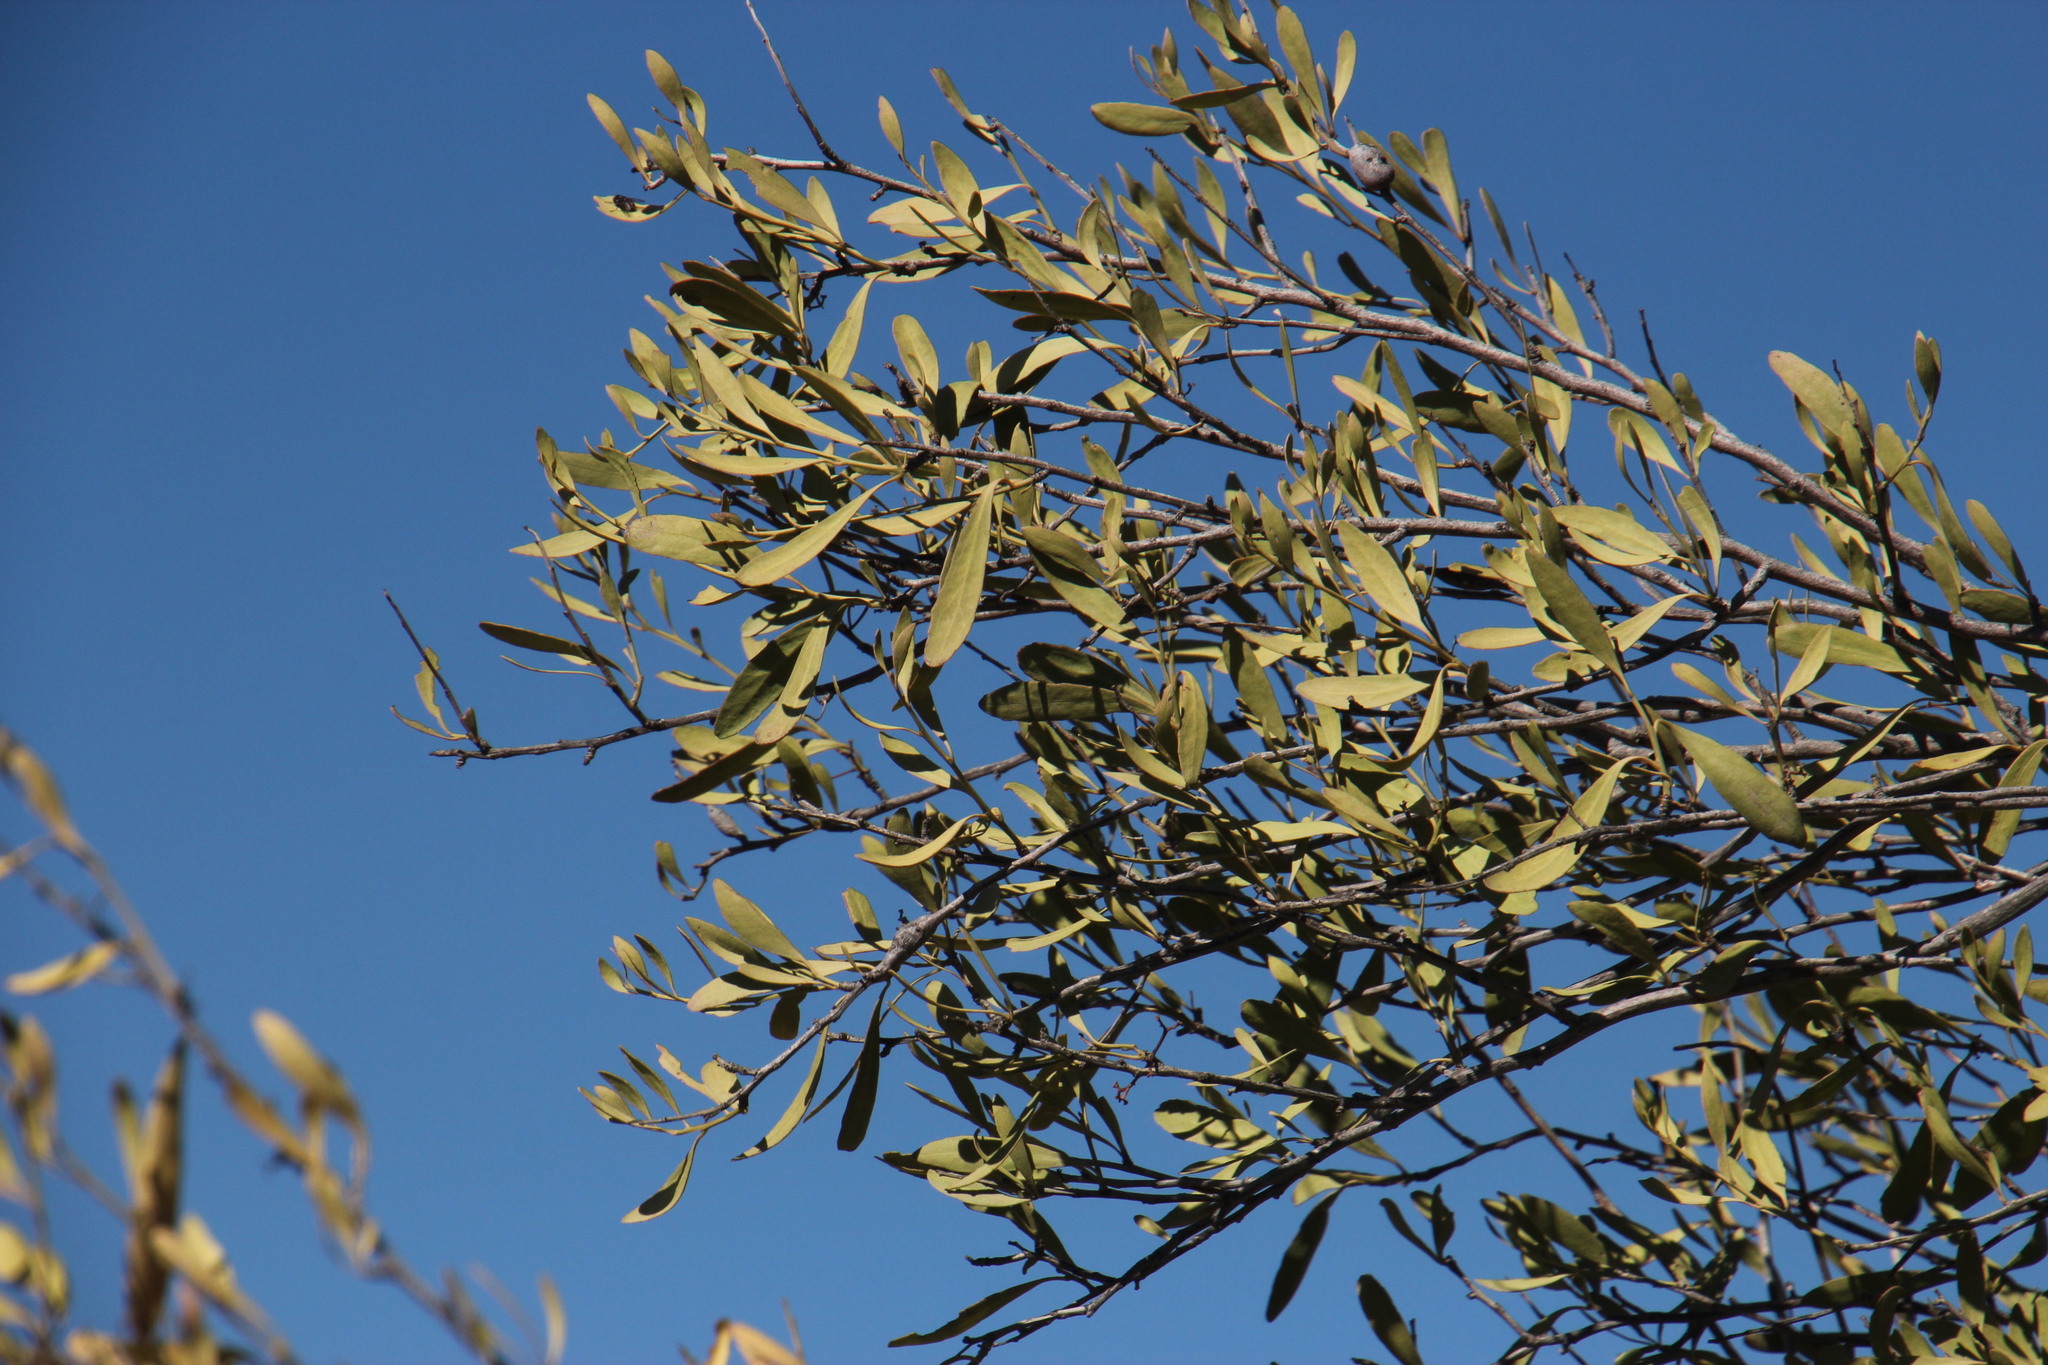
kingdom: Plantae
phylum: Tracheophyta
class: Magnoliopsida
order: Lamiales
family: Oleaceae
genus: Olea
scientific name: Olea europaea
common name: Olive
